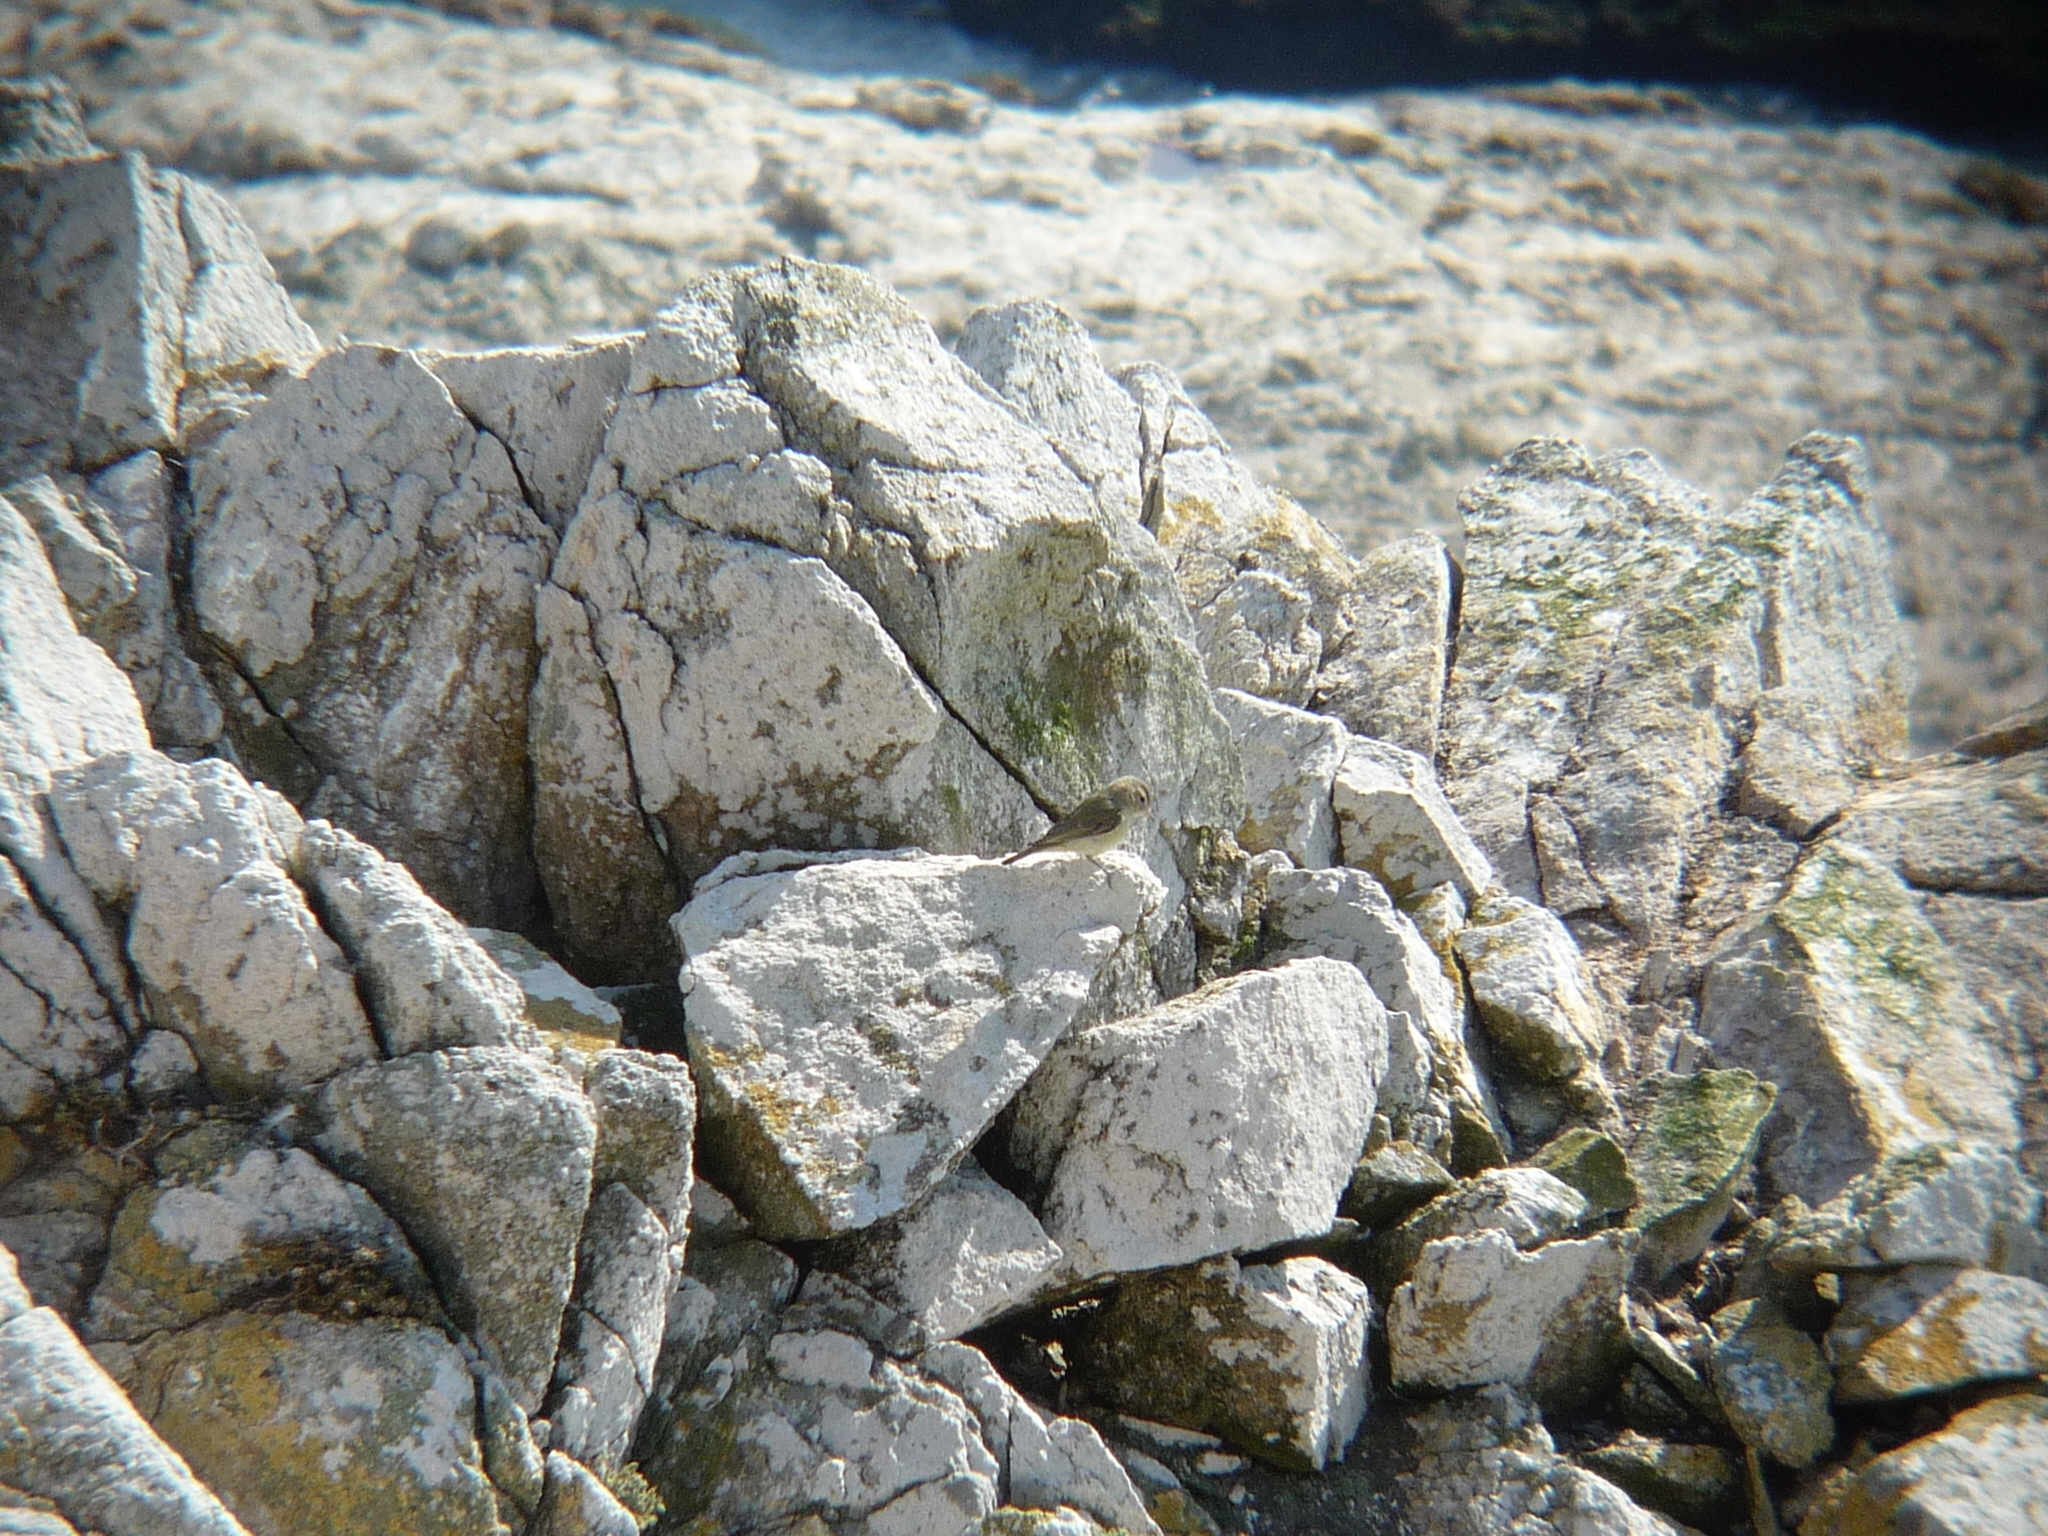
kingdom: Animalia
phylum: Chordata
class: Aves
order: Passeriformes
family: Vireonidae
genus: Vireo
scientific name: Vireo gilvus
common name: Warbling vireo
